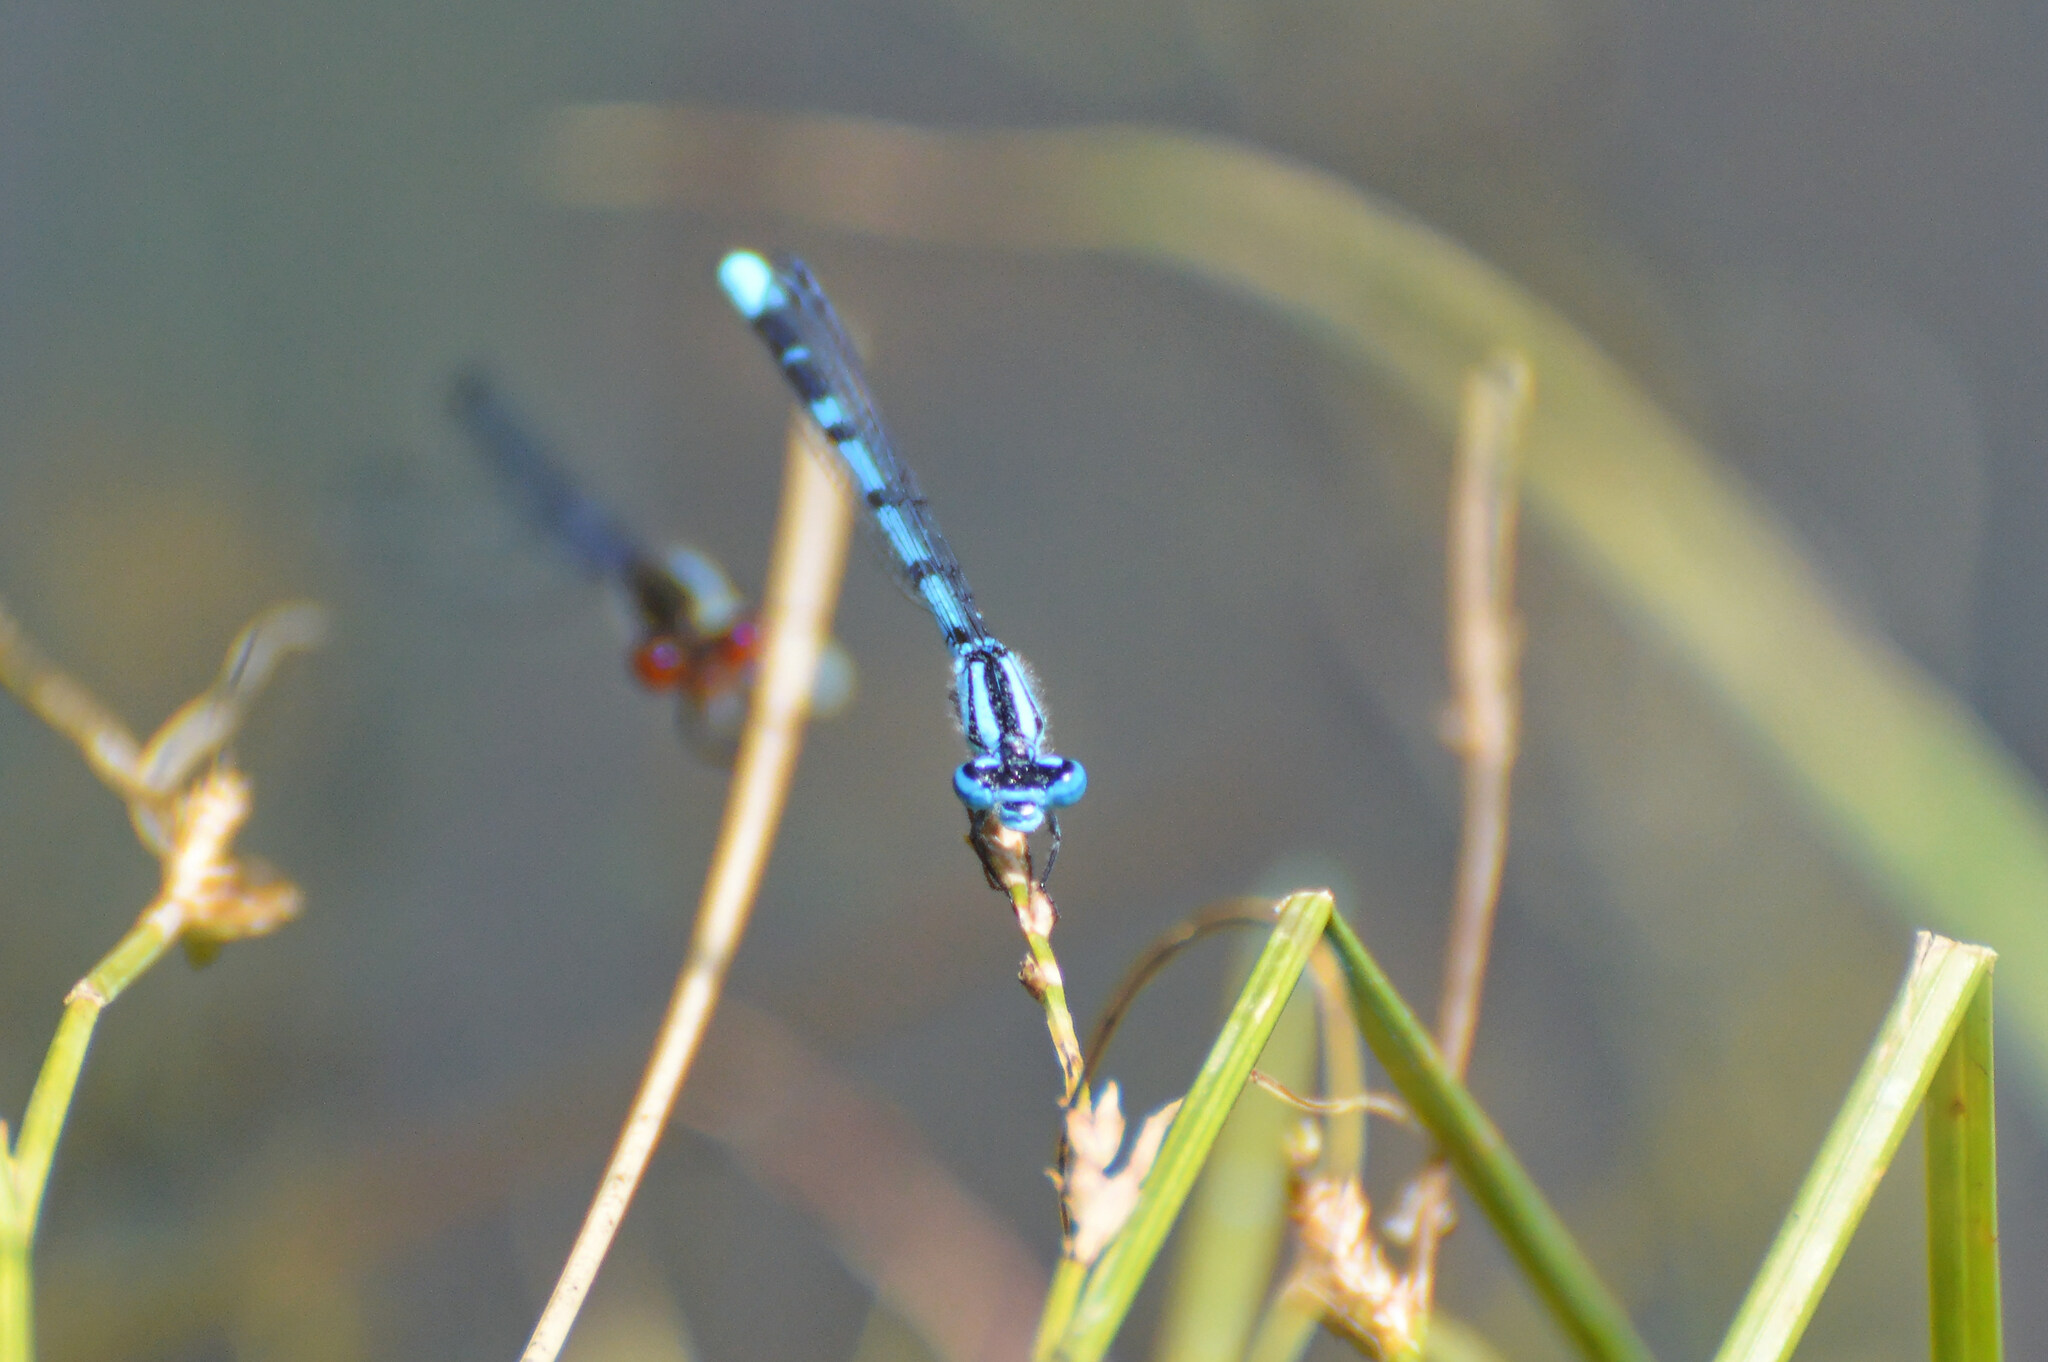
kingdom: Animalia
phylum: Arthropoda
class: Insecta
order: Odonata
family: Coenagrionidae
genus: Enallagma
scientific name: Enallagma cyathigerum
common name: Common blue damselfly
